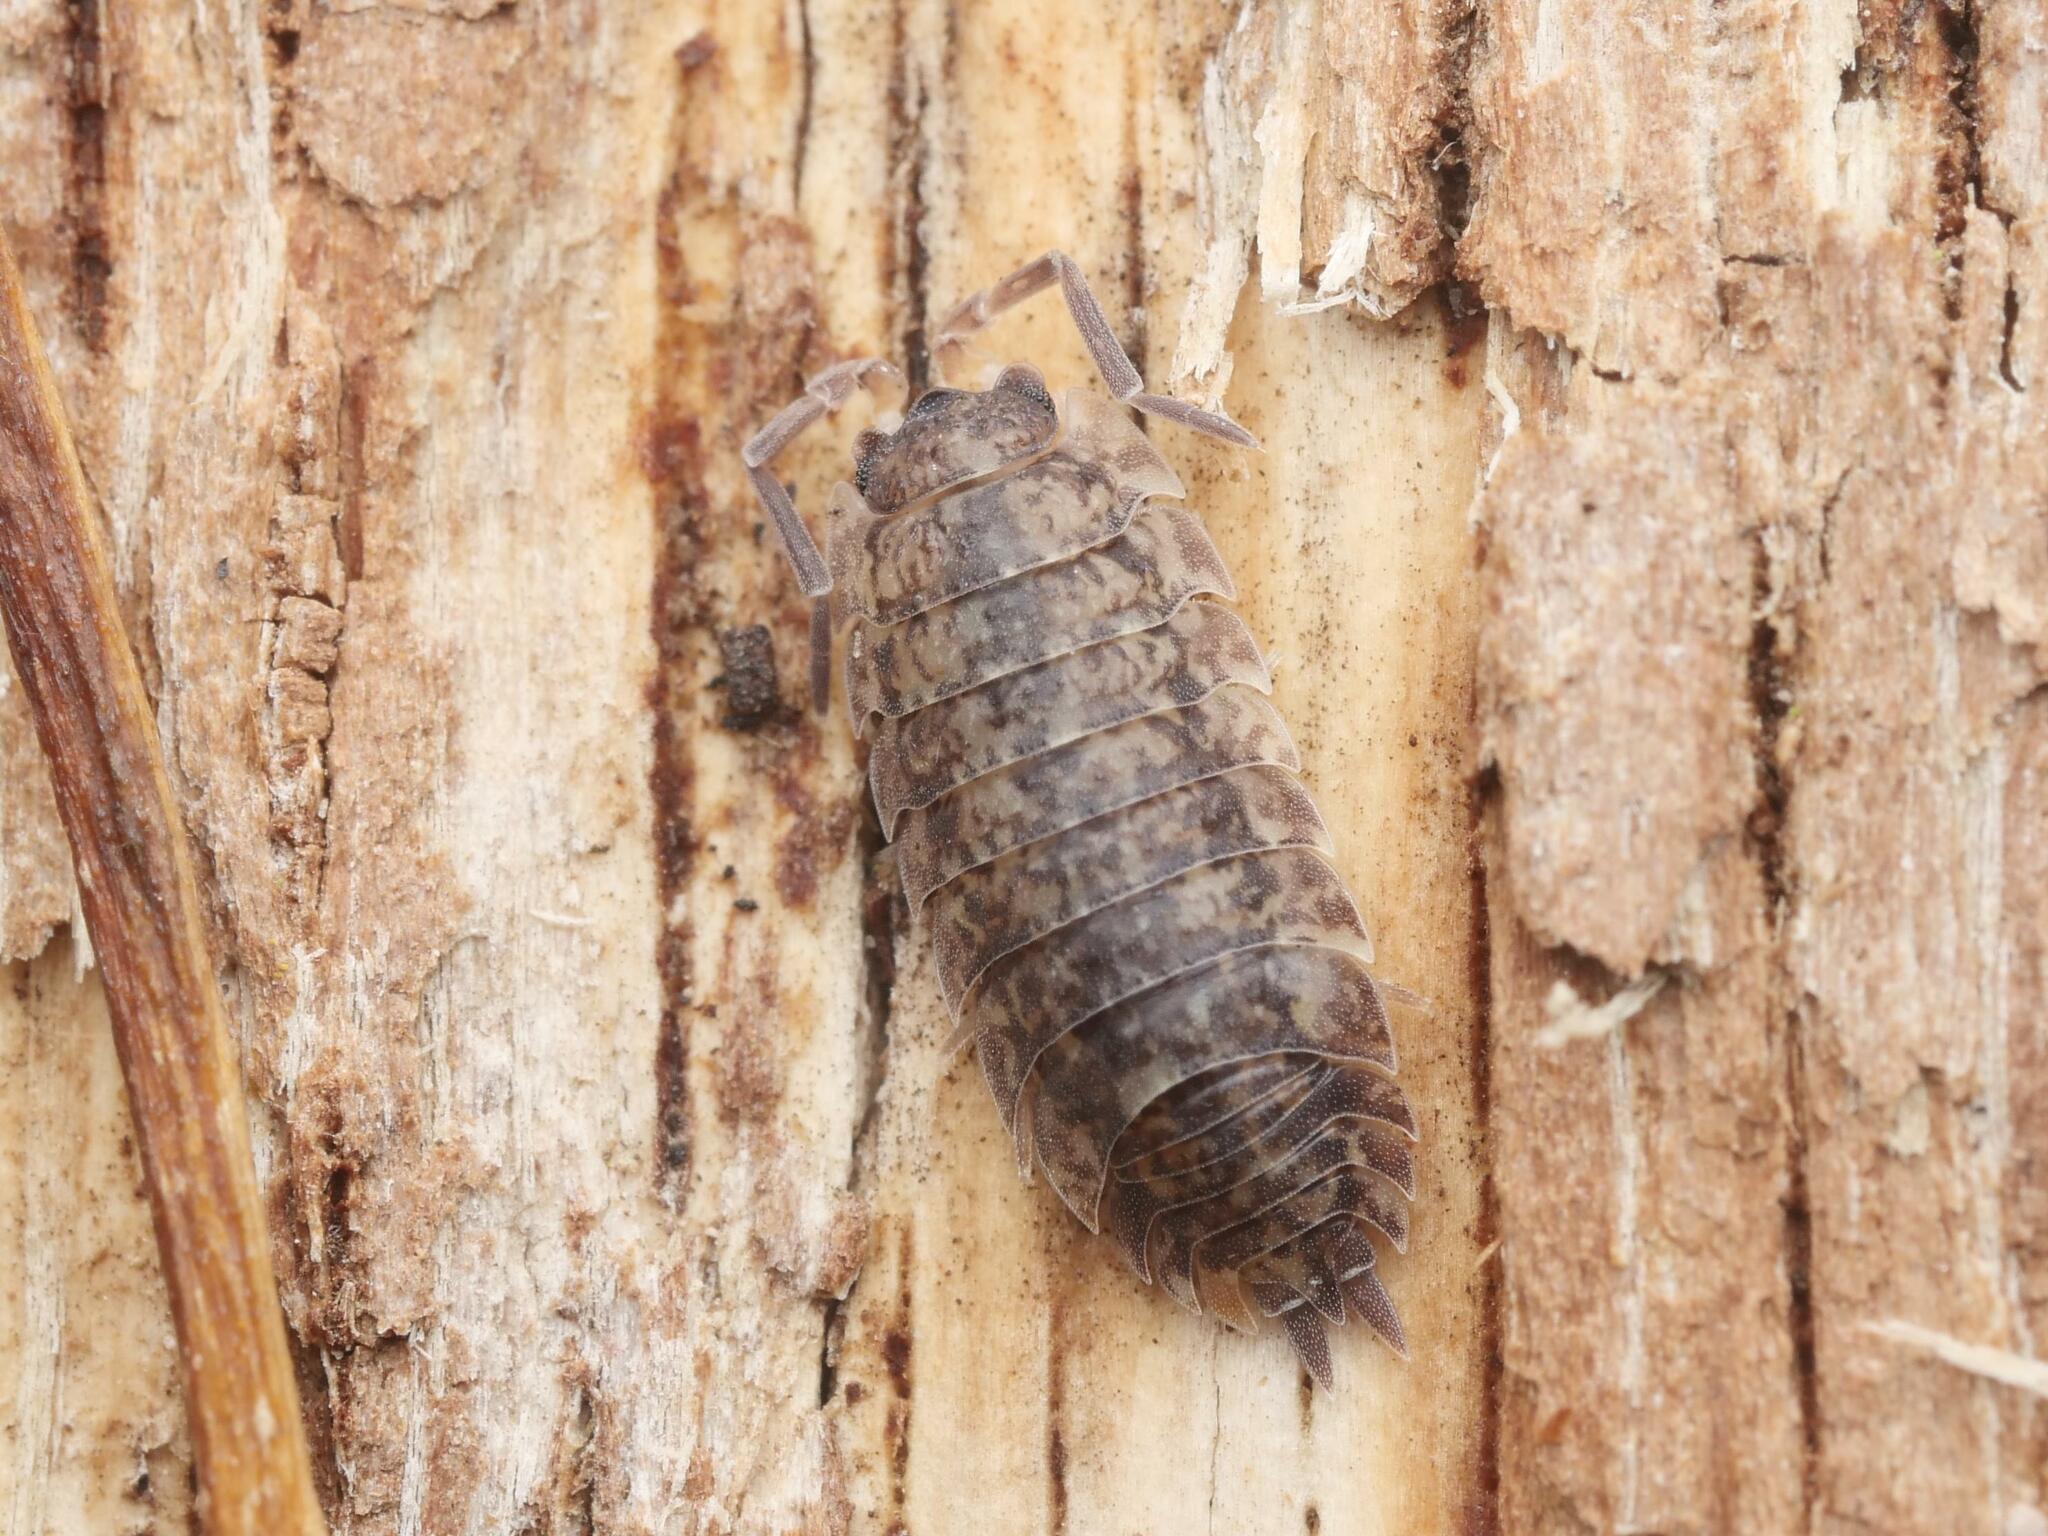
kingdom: Animalia
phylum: Arthropoda
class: Malacostraca
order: Isopoda
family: Porcellionidae
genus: Porcellio
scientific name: Porcellio scaber
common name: Common rough woodlouse
